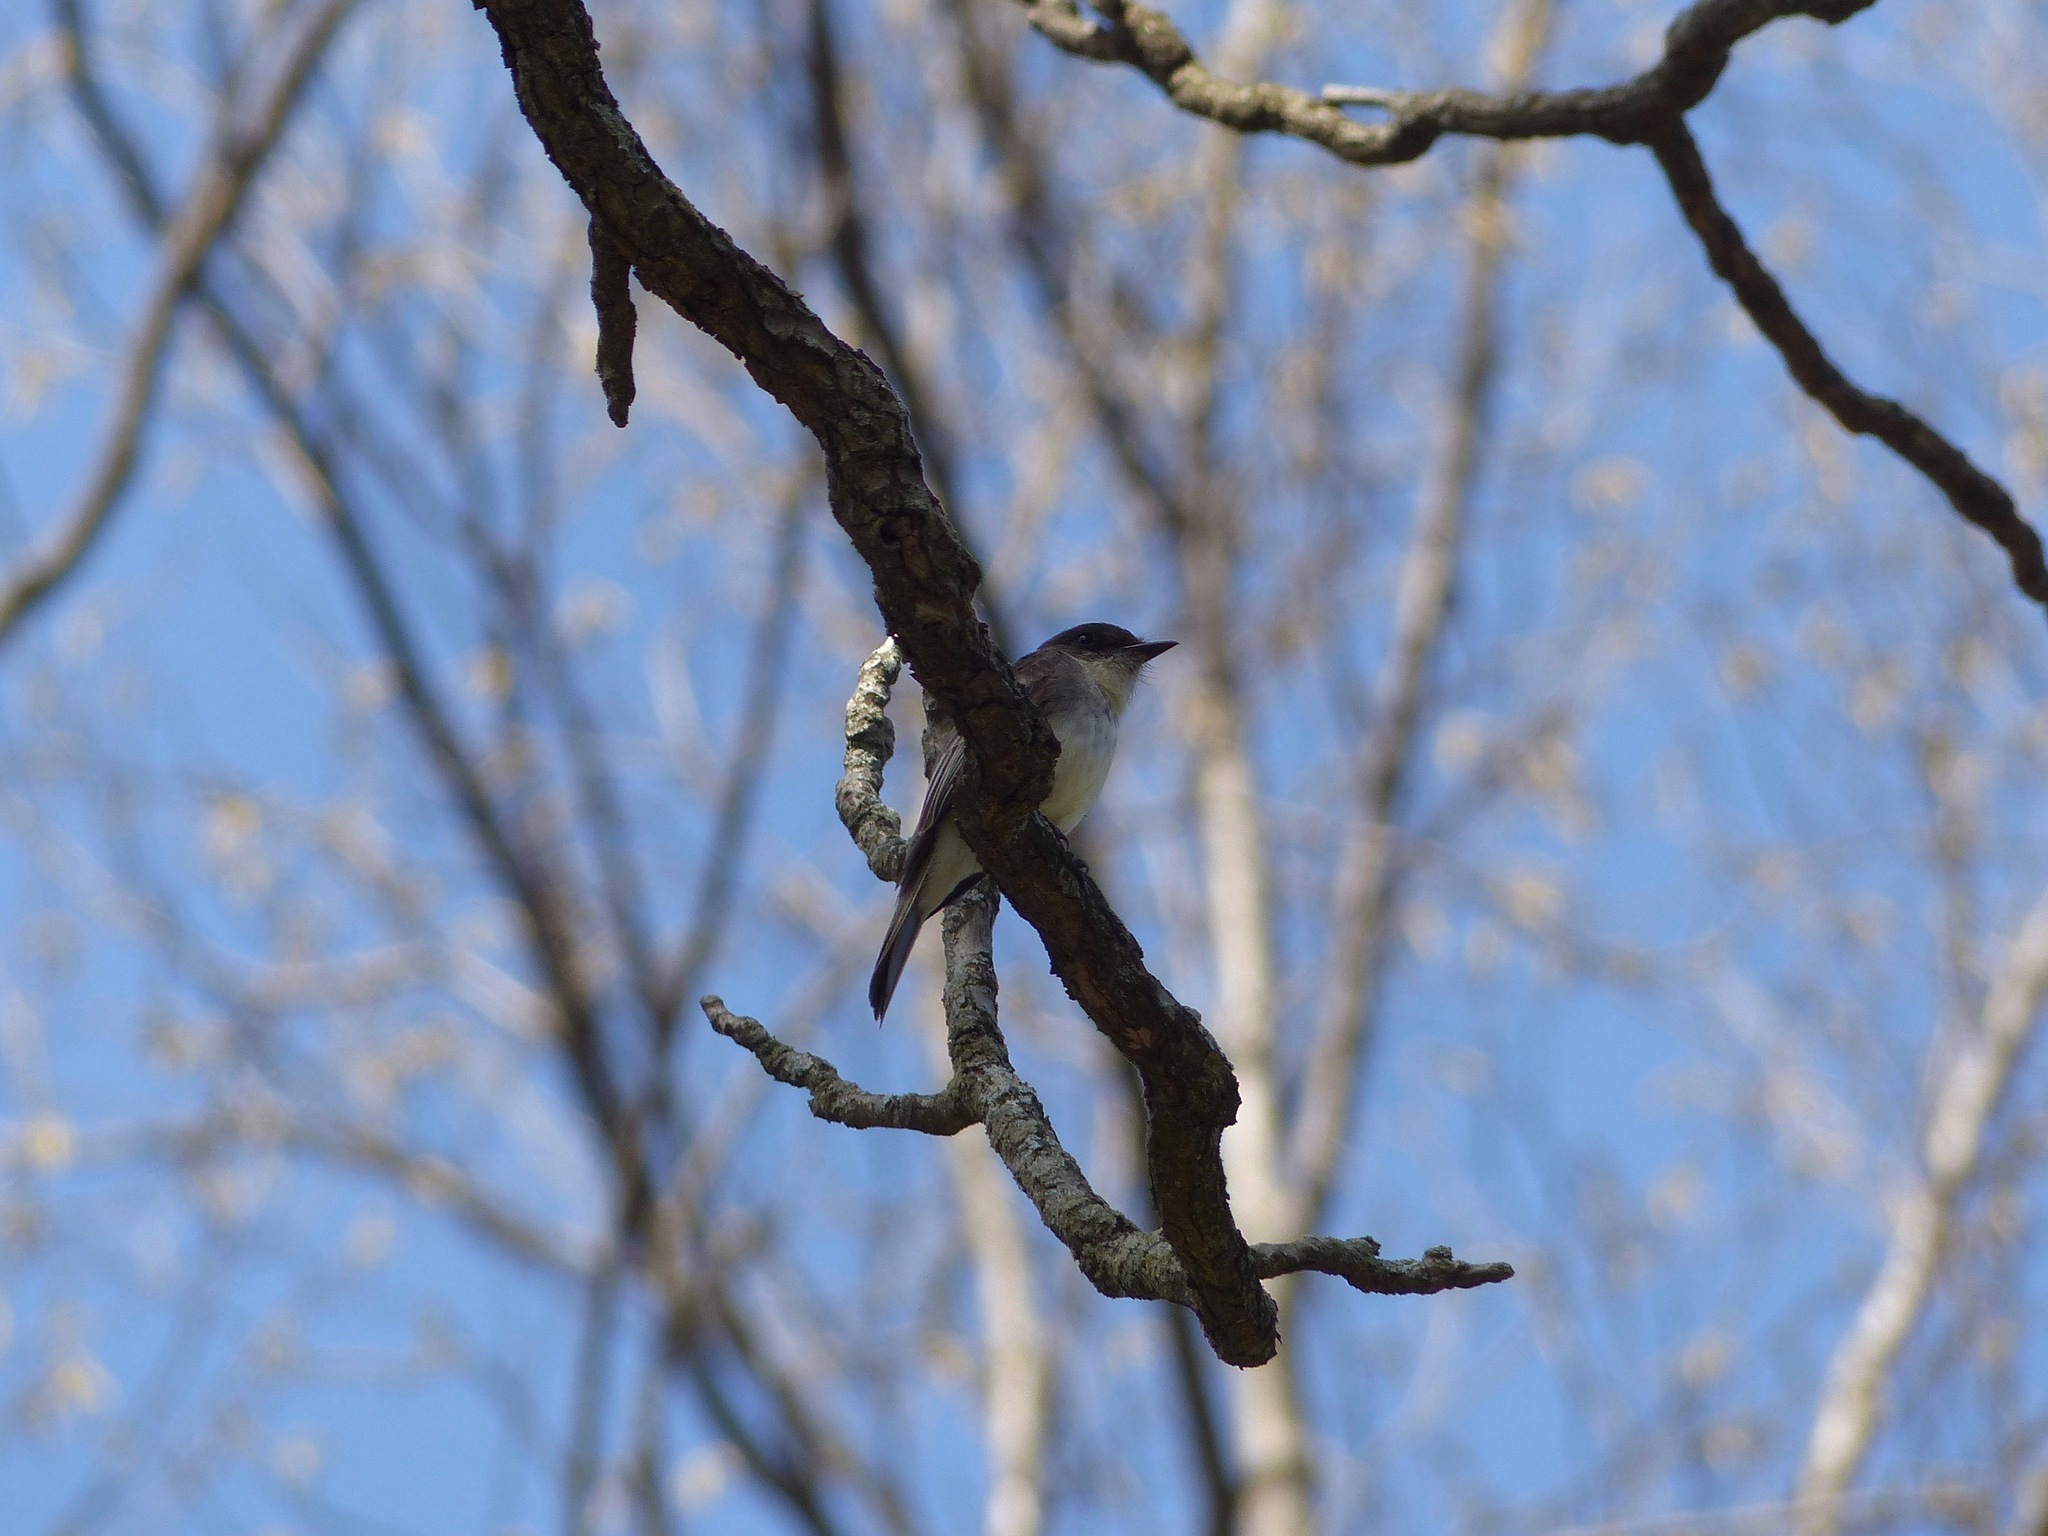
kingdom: Animalia
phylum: Chordata
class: Aves
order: Passeriformes
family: Tyrannidae
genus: Sayornis
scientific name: Sayornis phoebe
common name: Eastern phoebe
